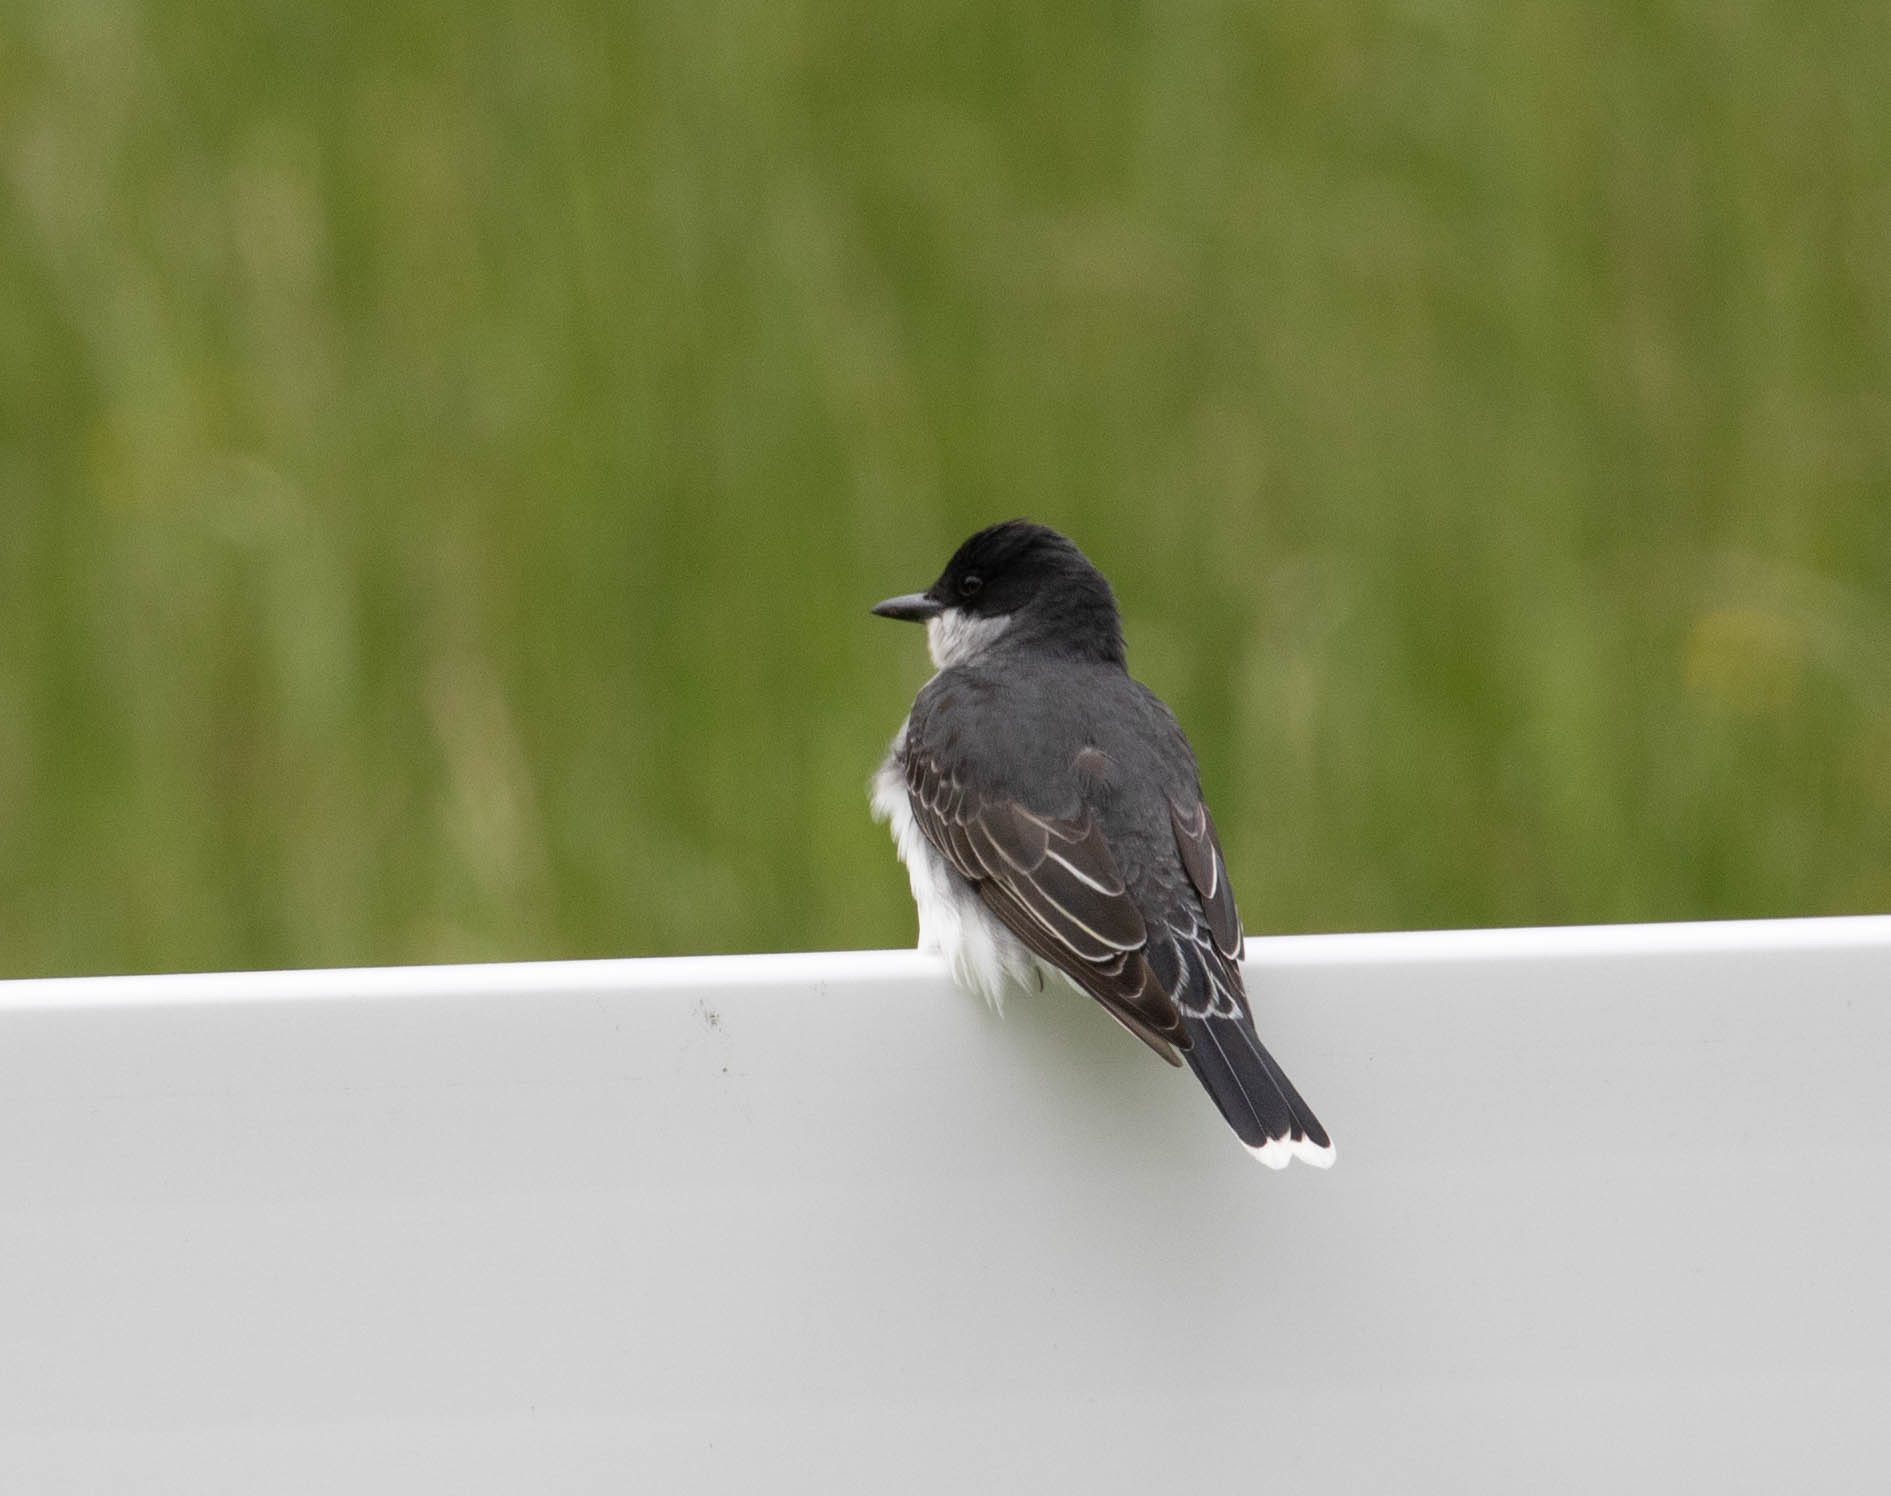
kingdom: Animalia
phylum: Chordata
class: Aves
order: Passeriformes
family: Tyrannidae
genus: Tyrannus
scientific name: Tyrannus tyrannus
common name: Eastern kingbird
